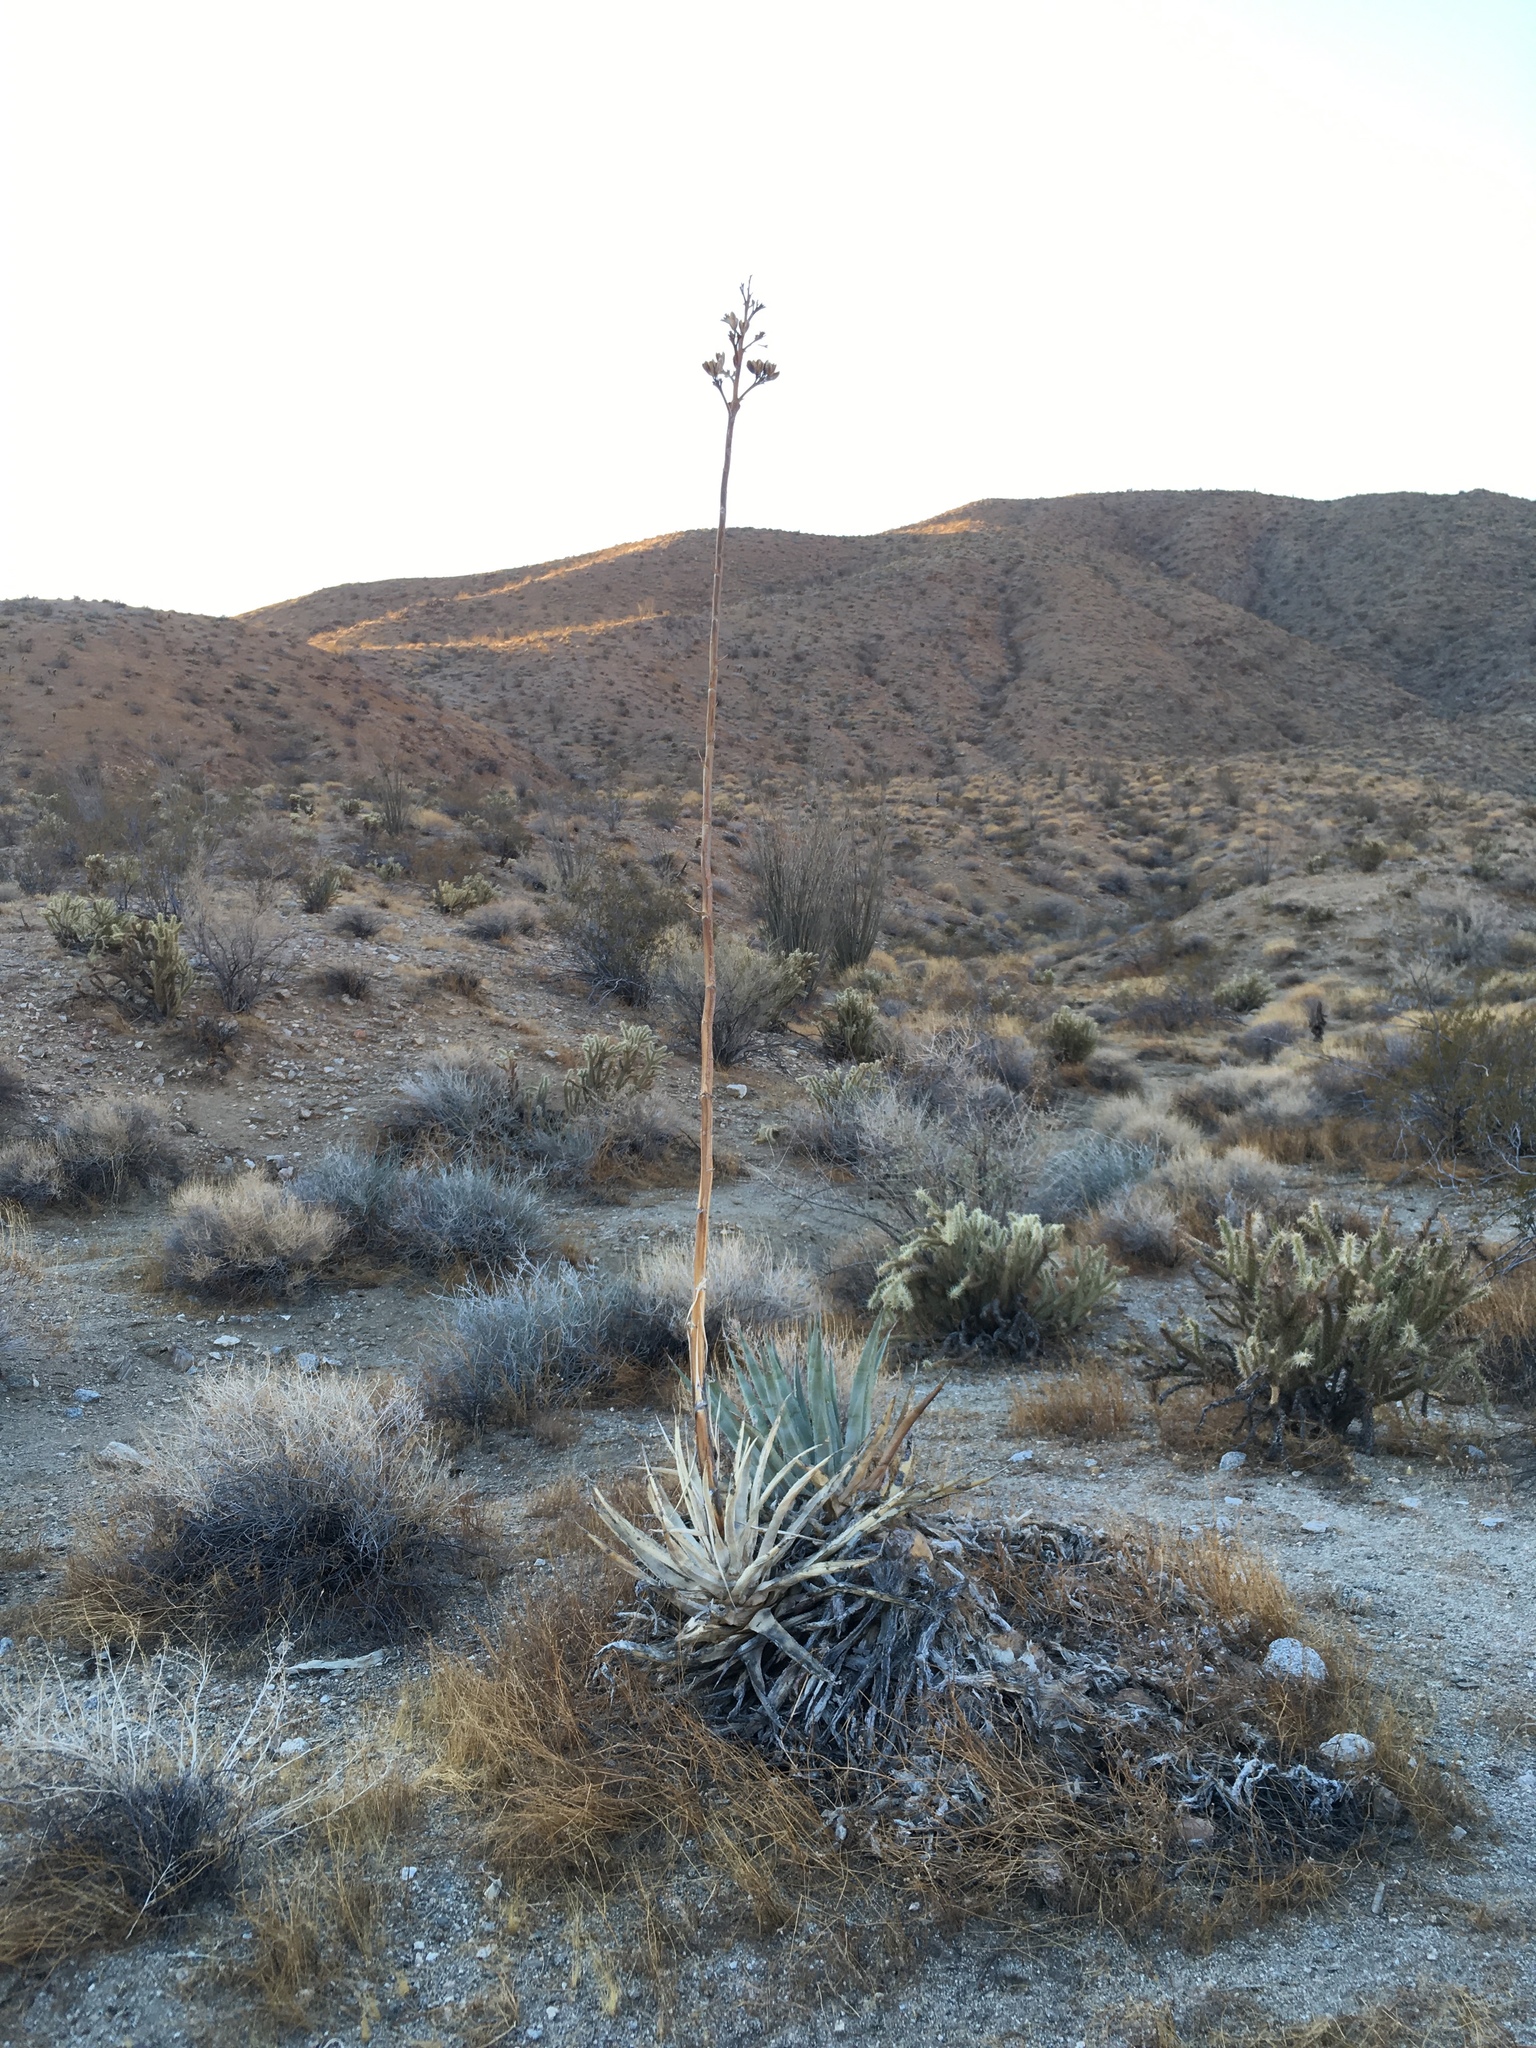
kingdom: Plantae
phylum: Tracheophyta
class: Liliopsida
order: Asparagales
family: Asparagaceae
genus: Agave
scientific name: Agave deserti
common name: Desert agave
